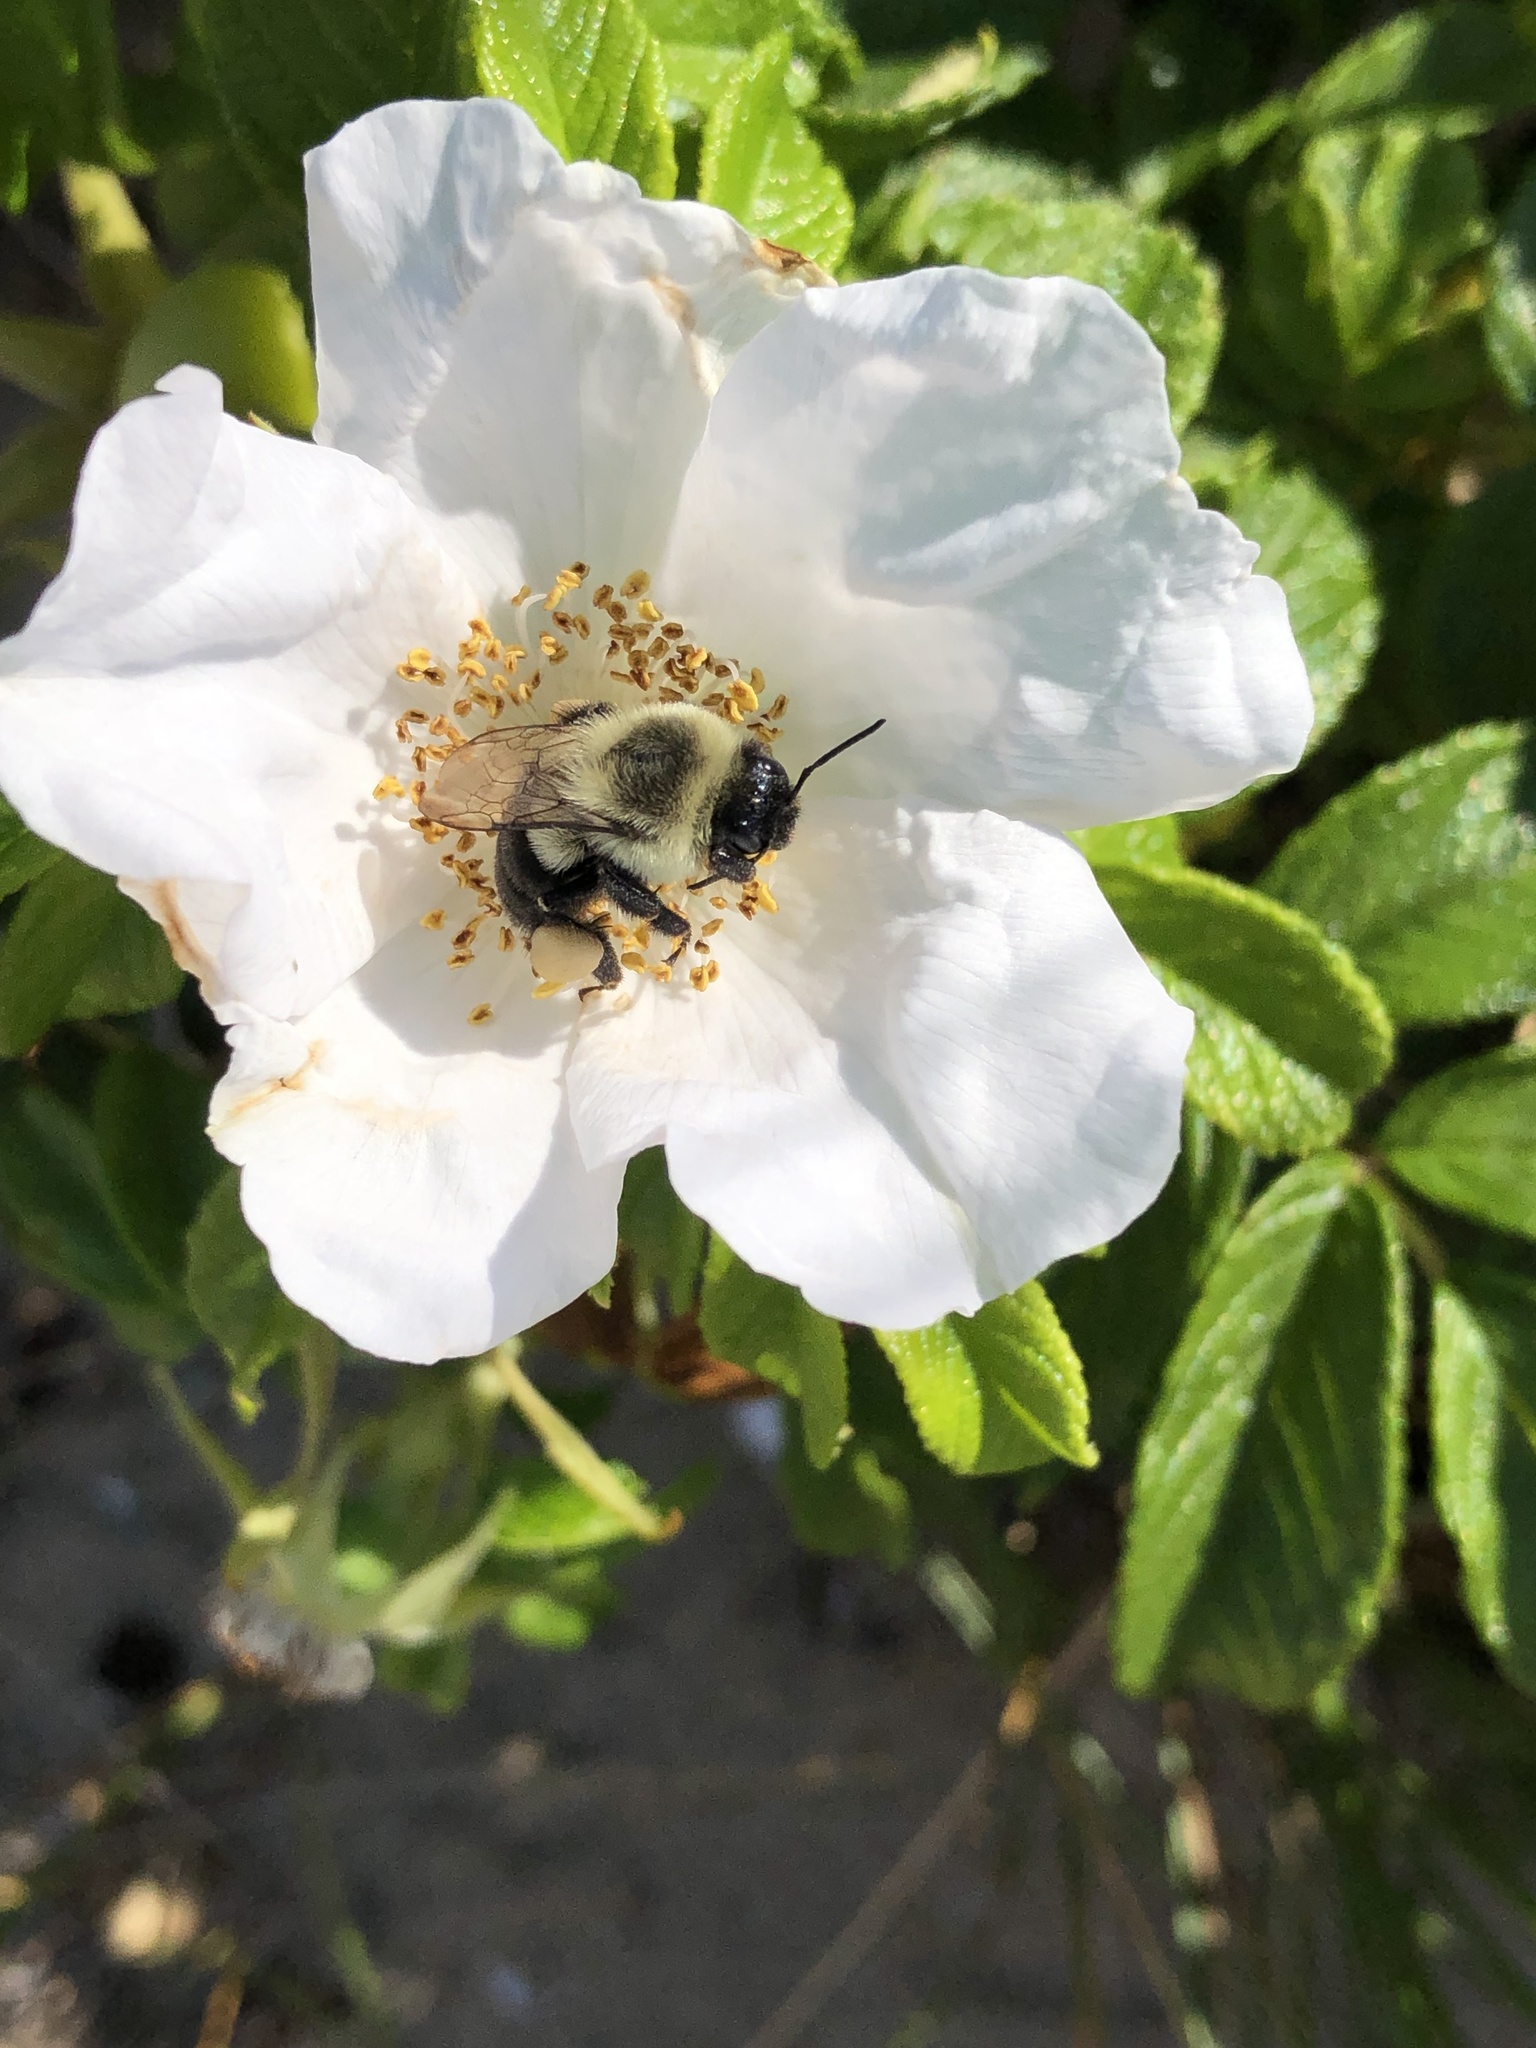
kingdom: Animalia
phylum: Arthropoda
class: Insecta
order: Hymenoptera
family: Apidae
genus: Bombus
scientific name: Bombus impatiens
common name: Common eastern bumble bee
